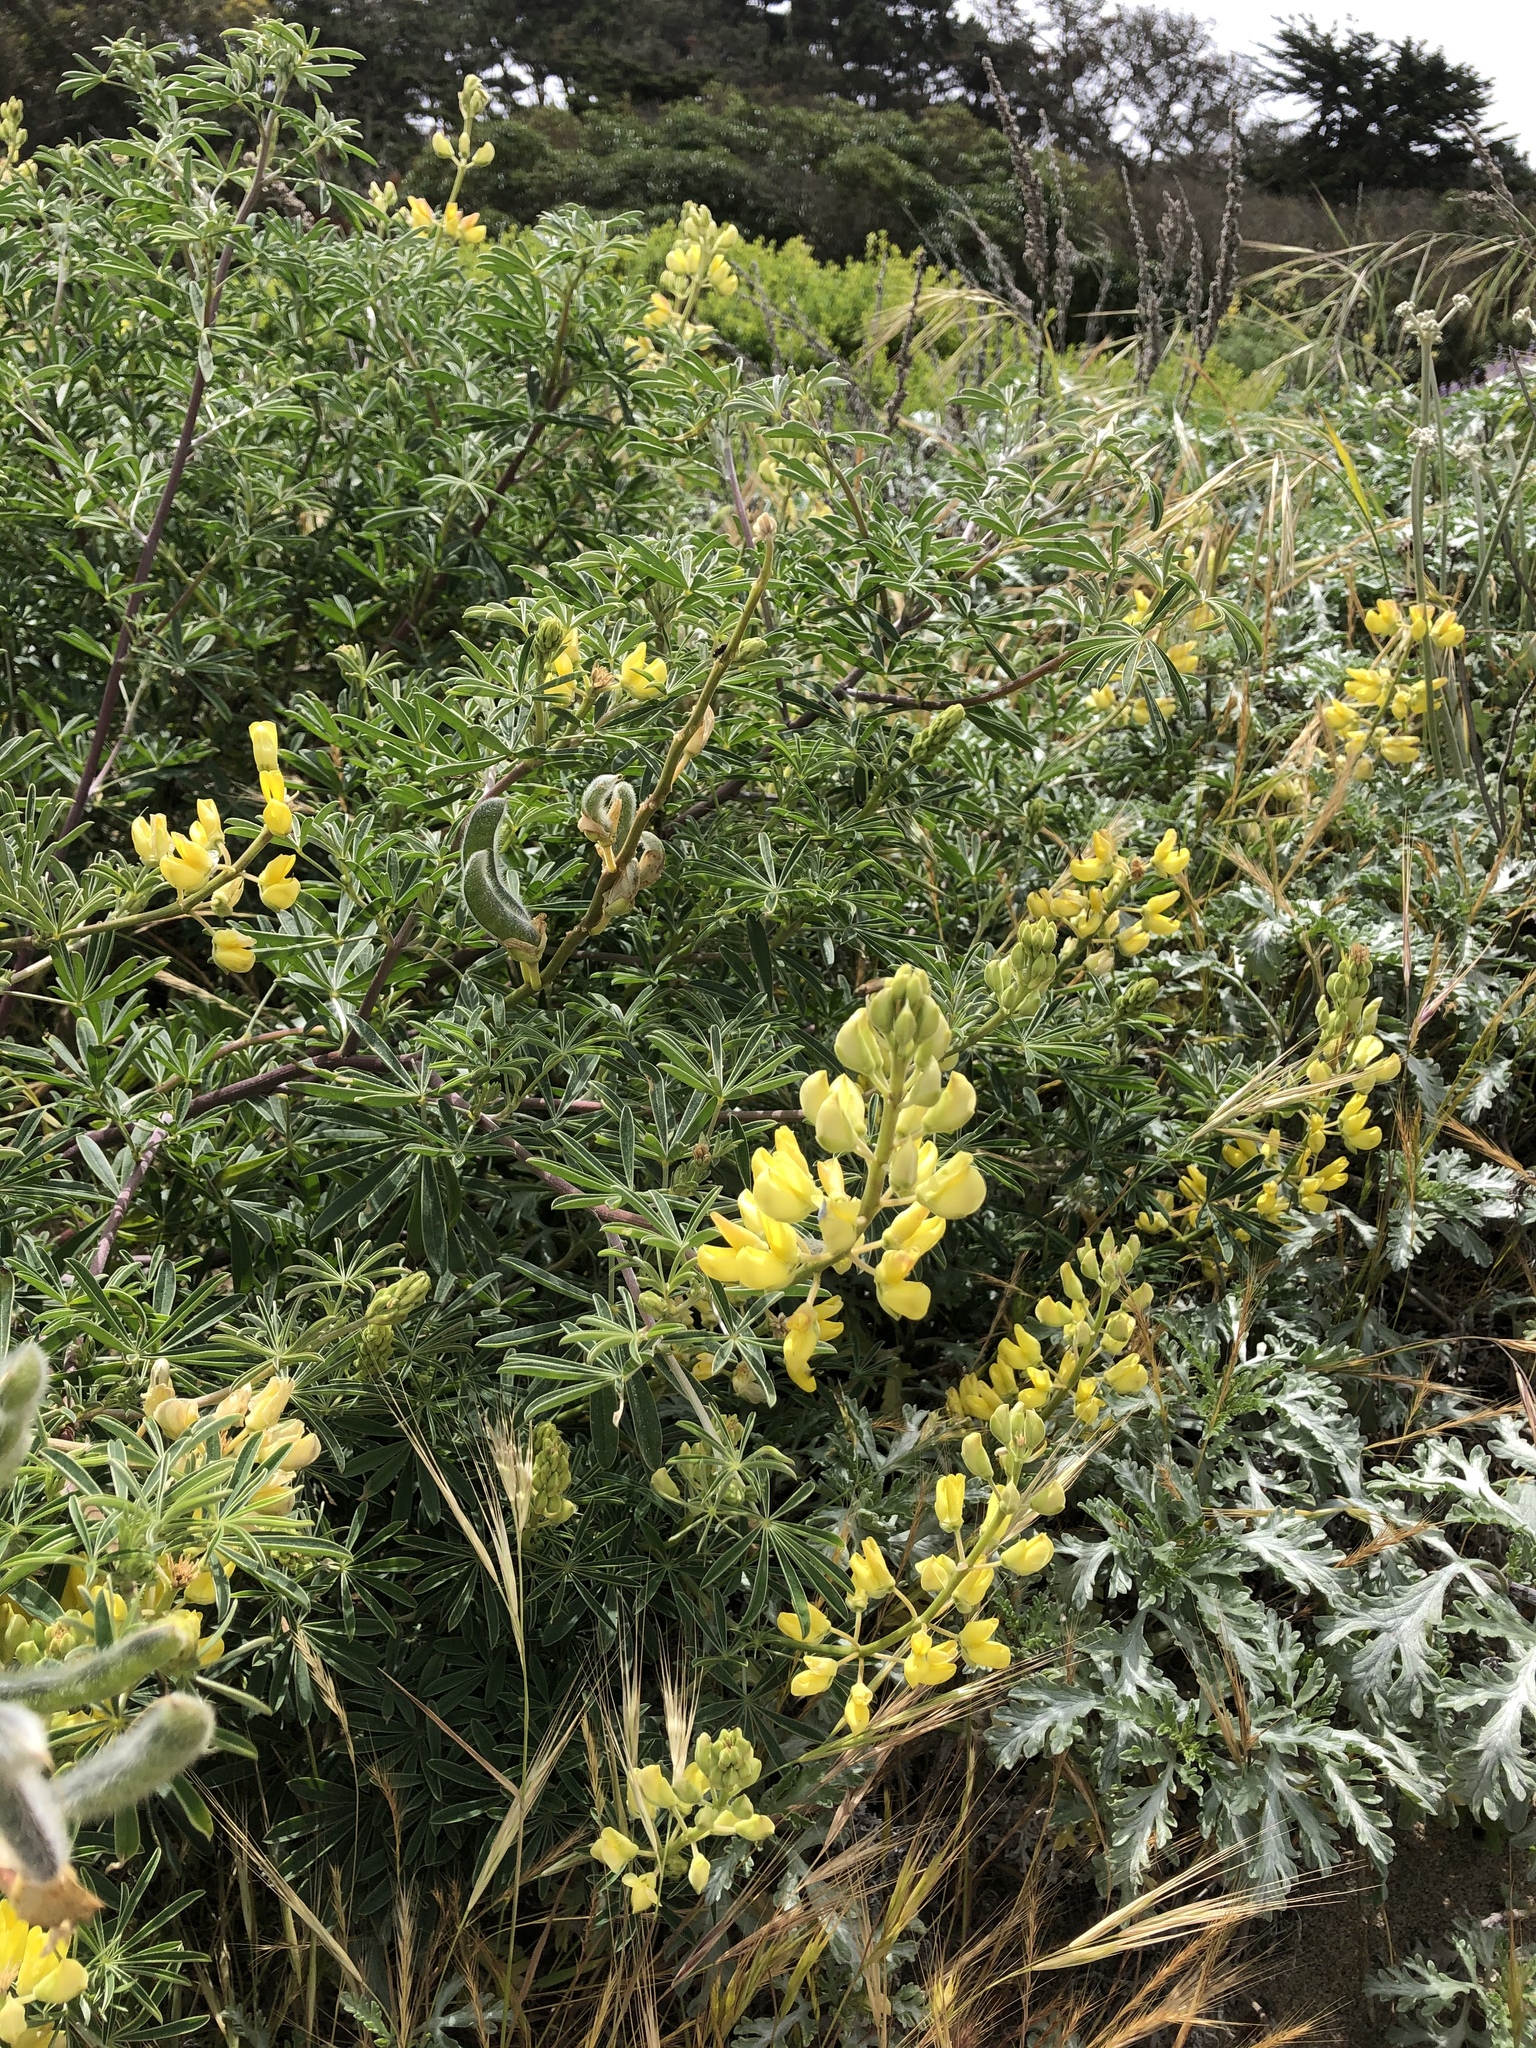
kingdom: Plantae
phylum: Tracheophyta
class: Magnoliopsida
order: Fabales
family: Fabaceae
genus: Lupinus
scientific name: Lupinus arboreus
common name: Yellow bush lupine
